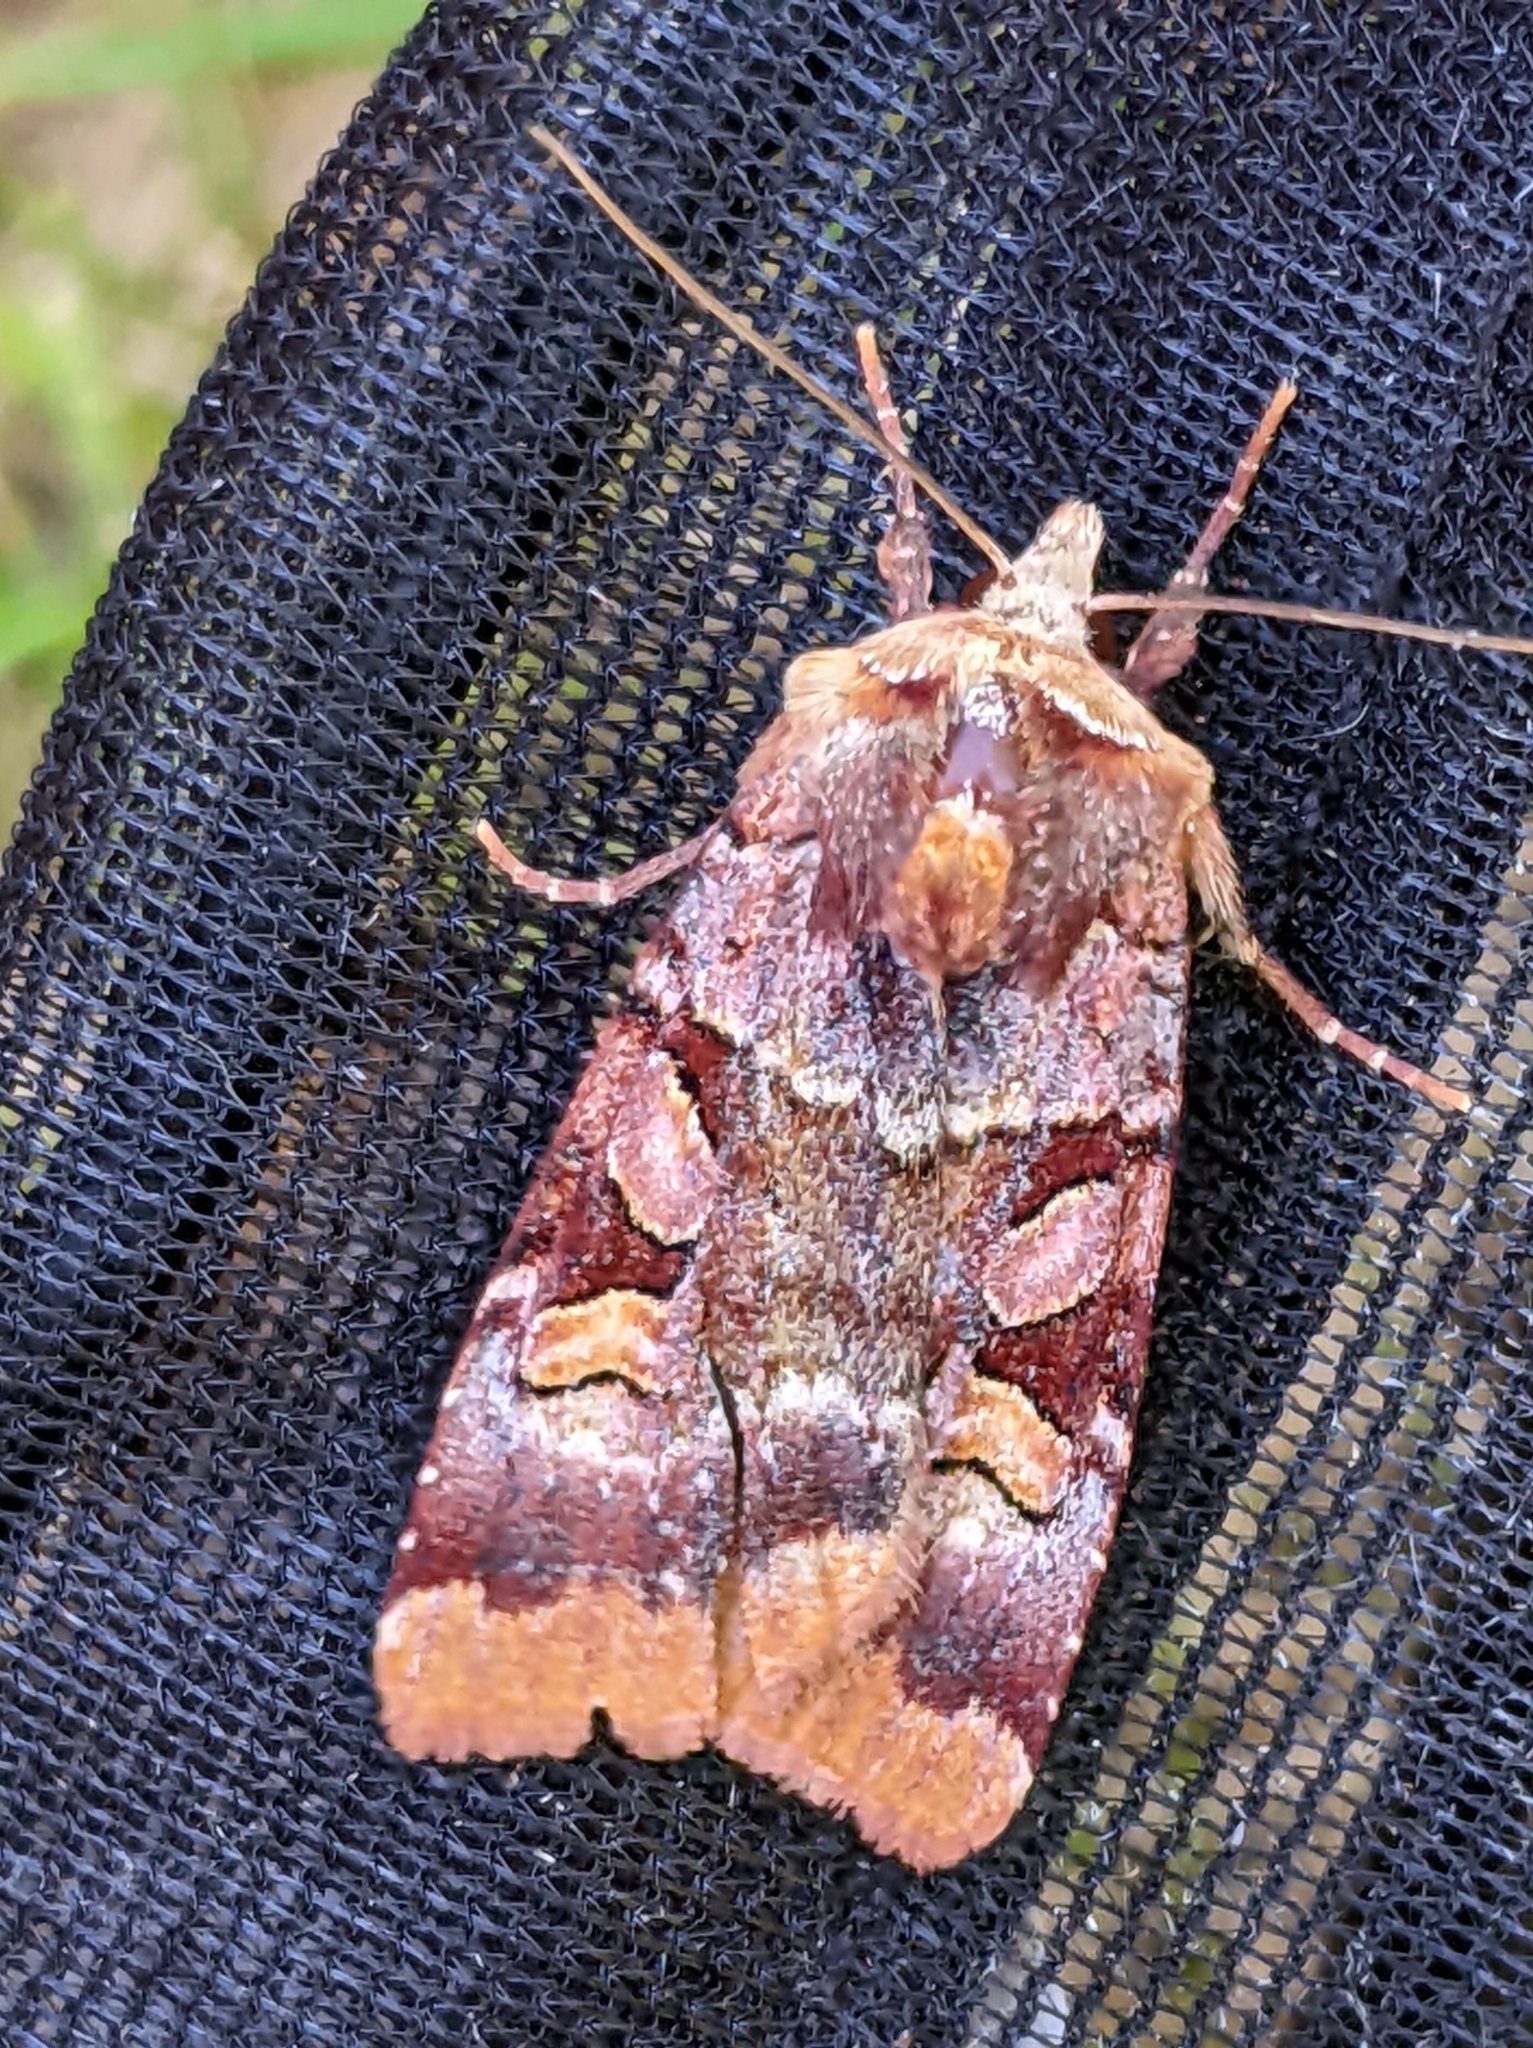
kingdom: Animalia
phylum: Arthropoda
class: Insecta
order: Lepidoptera
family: Noctuidae
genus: Xestia
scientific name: Xestia oblata
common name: Rosy dart
